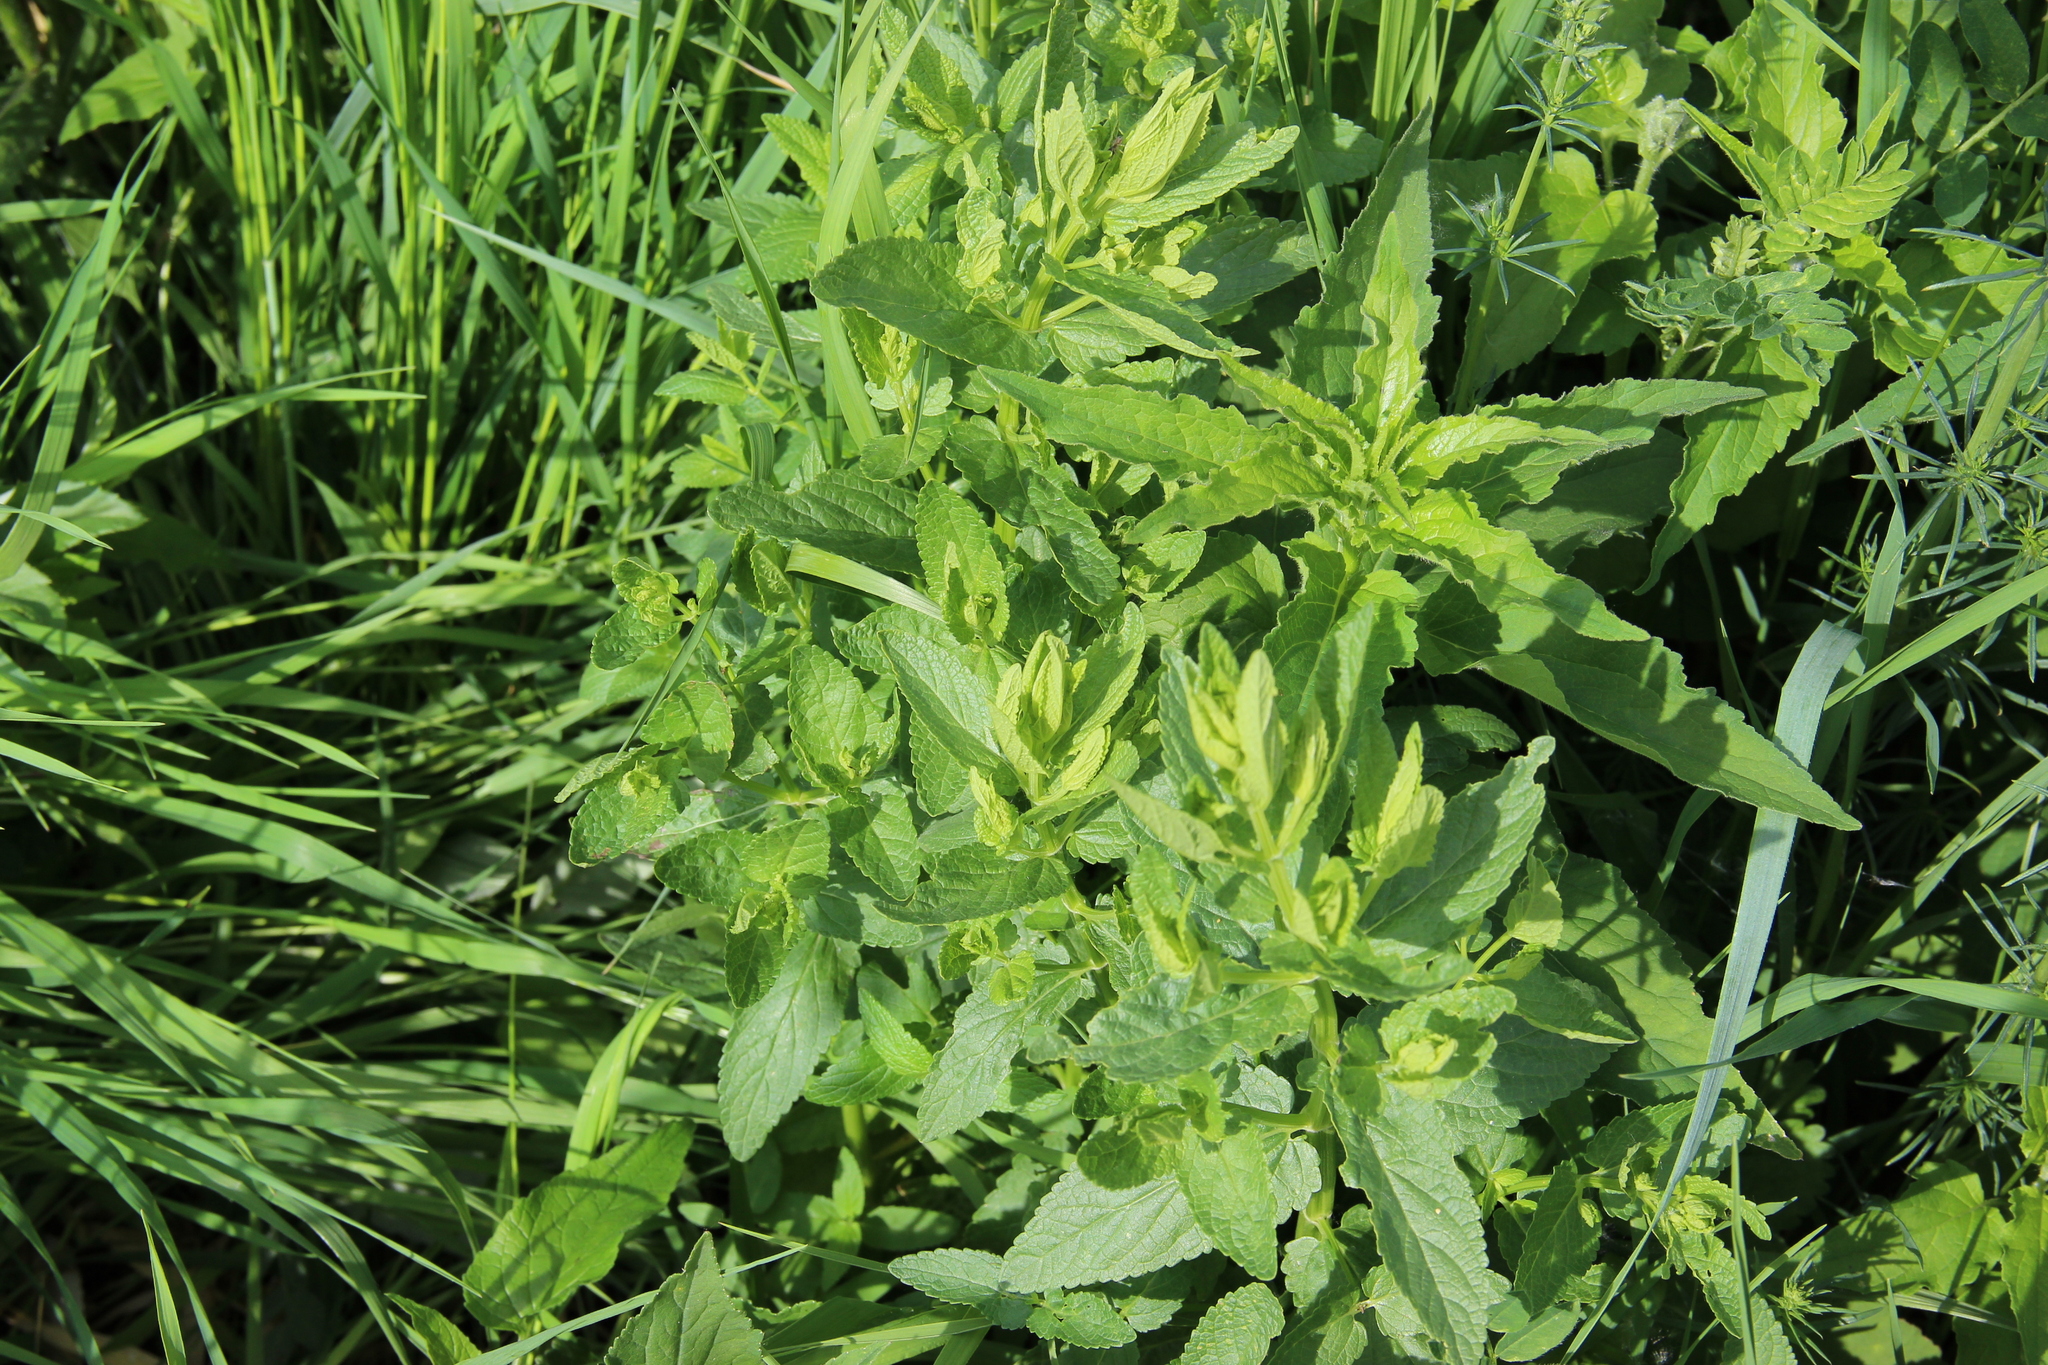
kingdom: Plantae
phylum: Tracheophyta
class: Magnoliopsida
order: Lamiales
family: Lamiaceae
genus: Nepeta
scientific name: Nepeta nuda
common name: Hairless catmint
